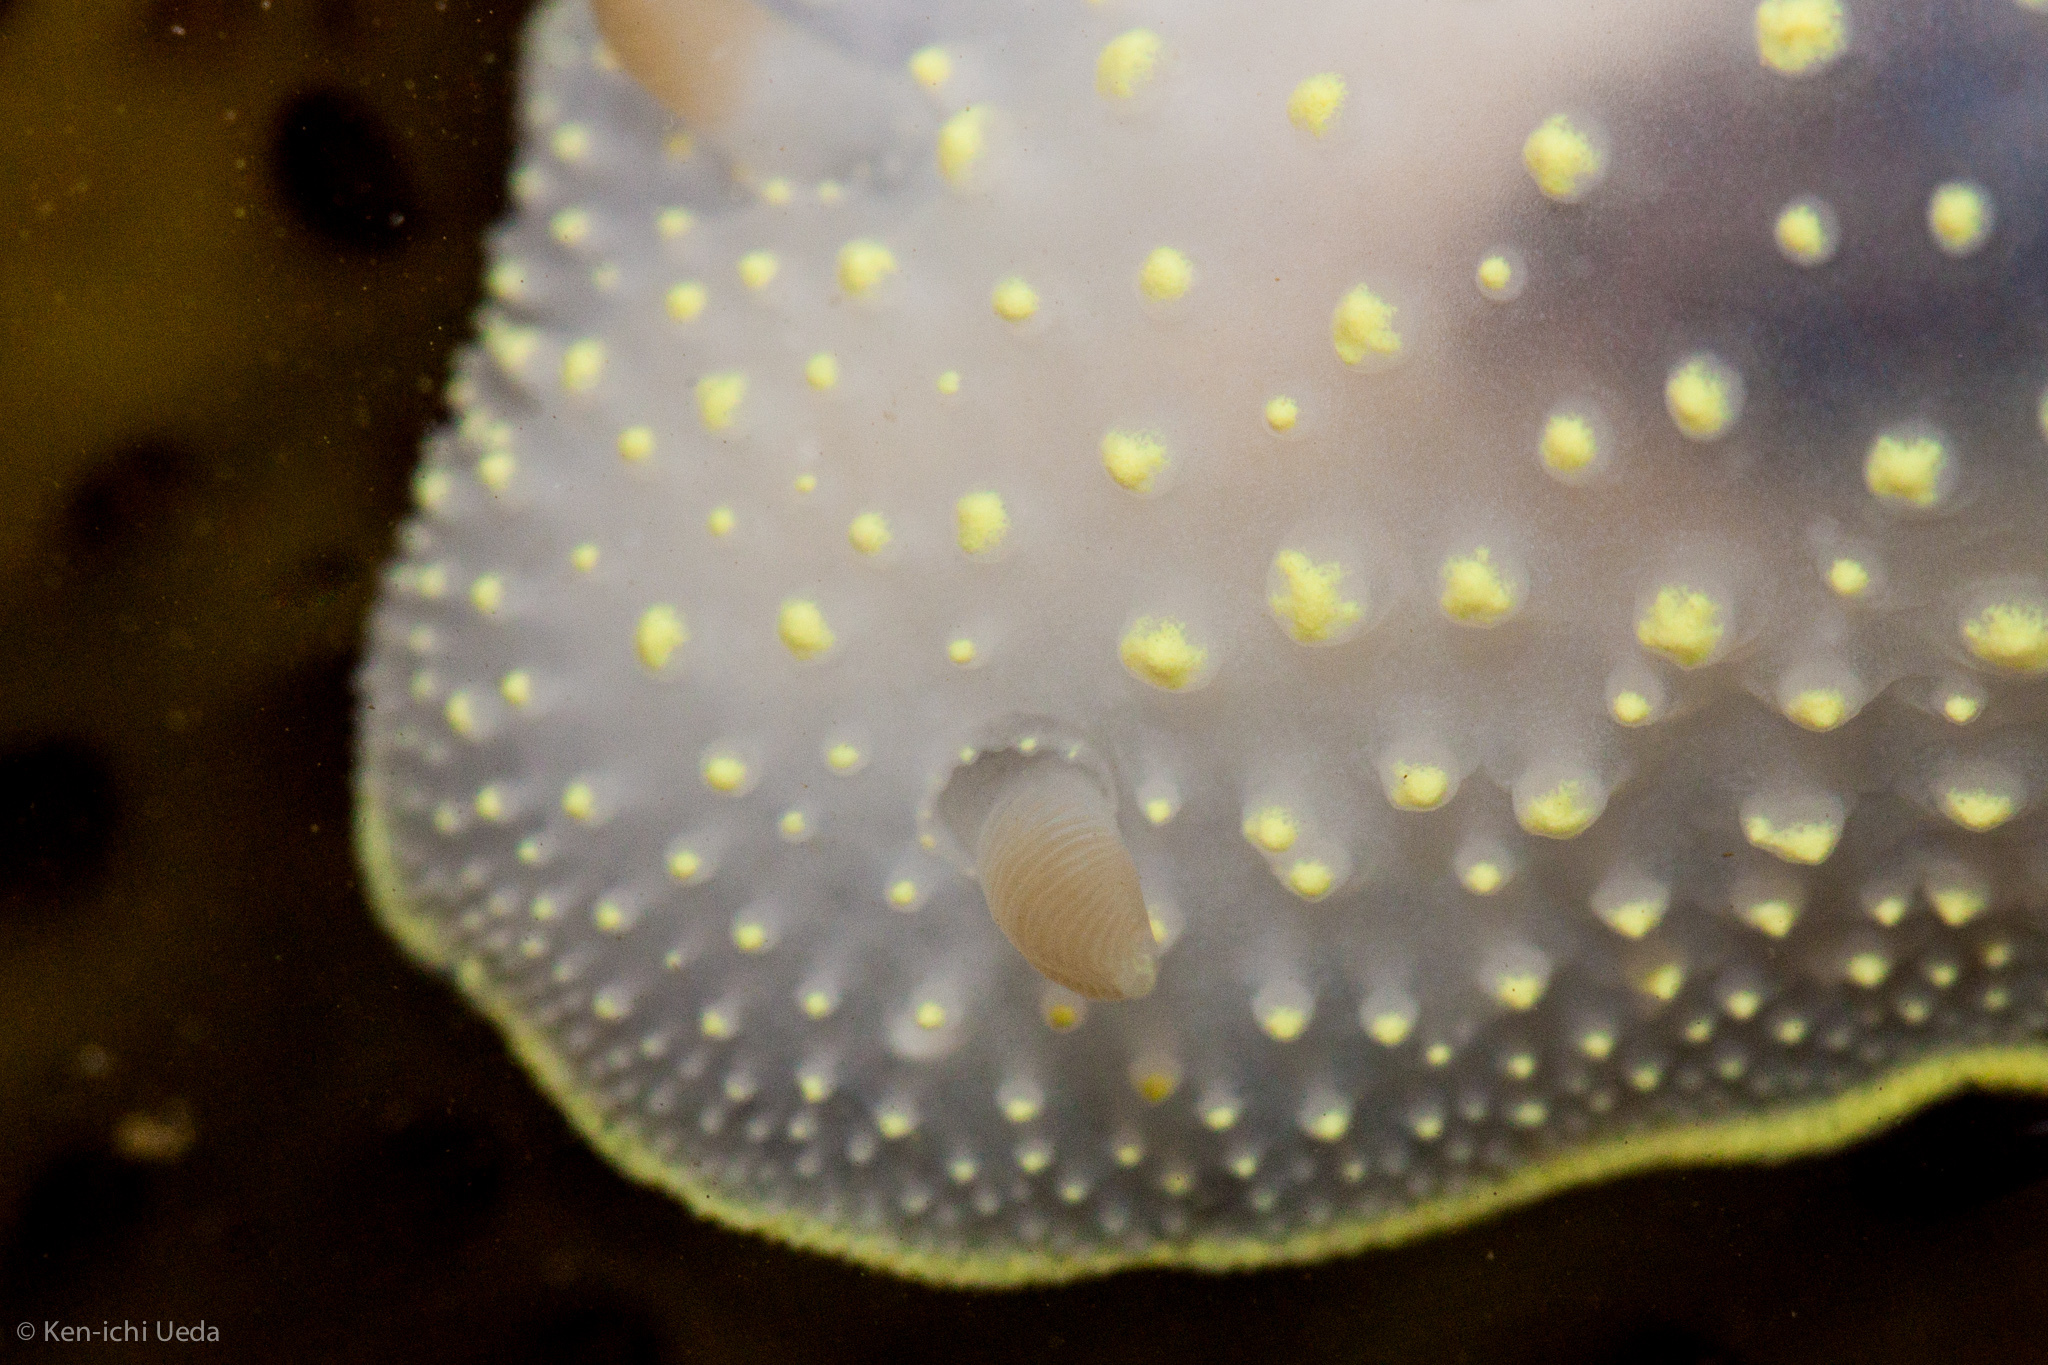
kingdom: Animalia
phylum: Mollusca
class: Gastropoda
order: Nudibranchia
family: Cadlinidae
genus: Cadlina
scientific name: Cadlina luteomarginata
